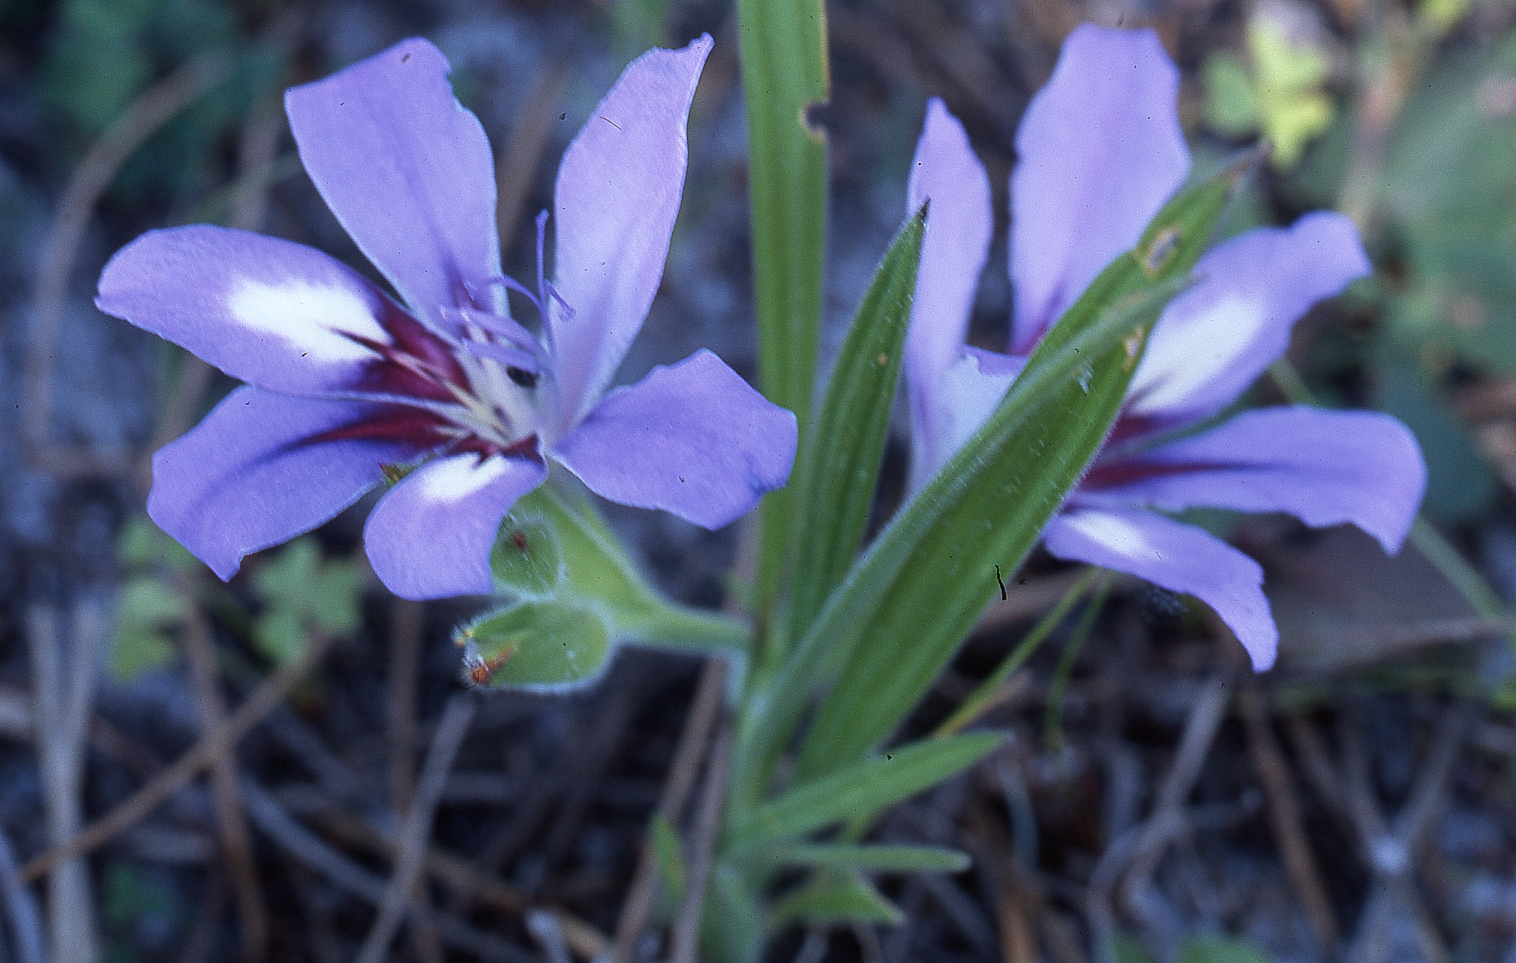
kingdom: Plantae
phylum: Tracheophyta
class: Liliopsida
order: Asparagales
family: Iridaceae
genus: Babiana
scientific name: Babiana ambigua
